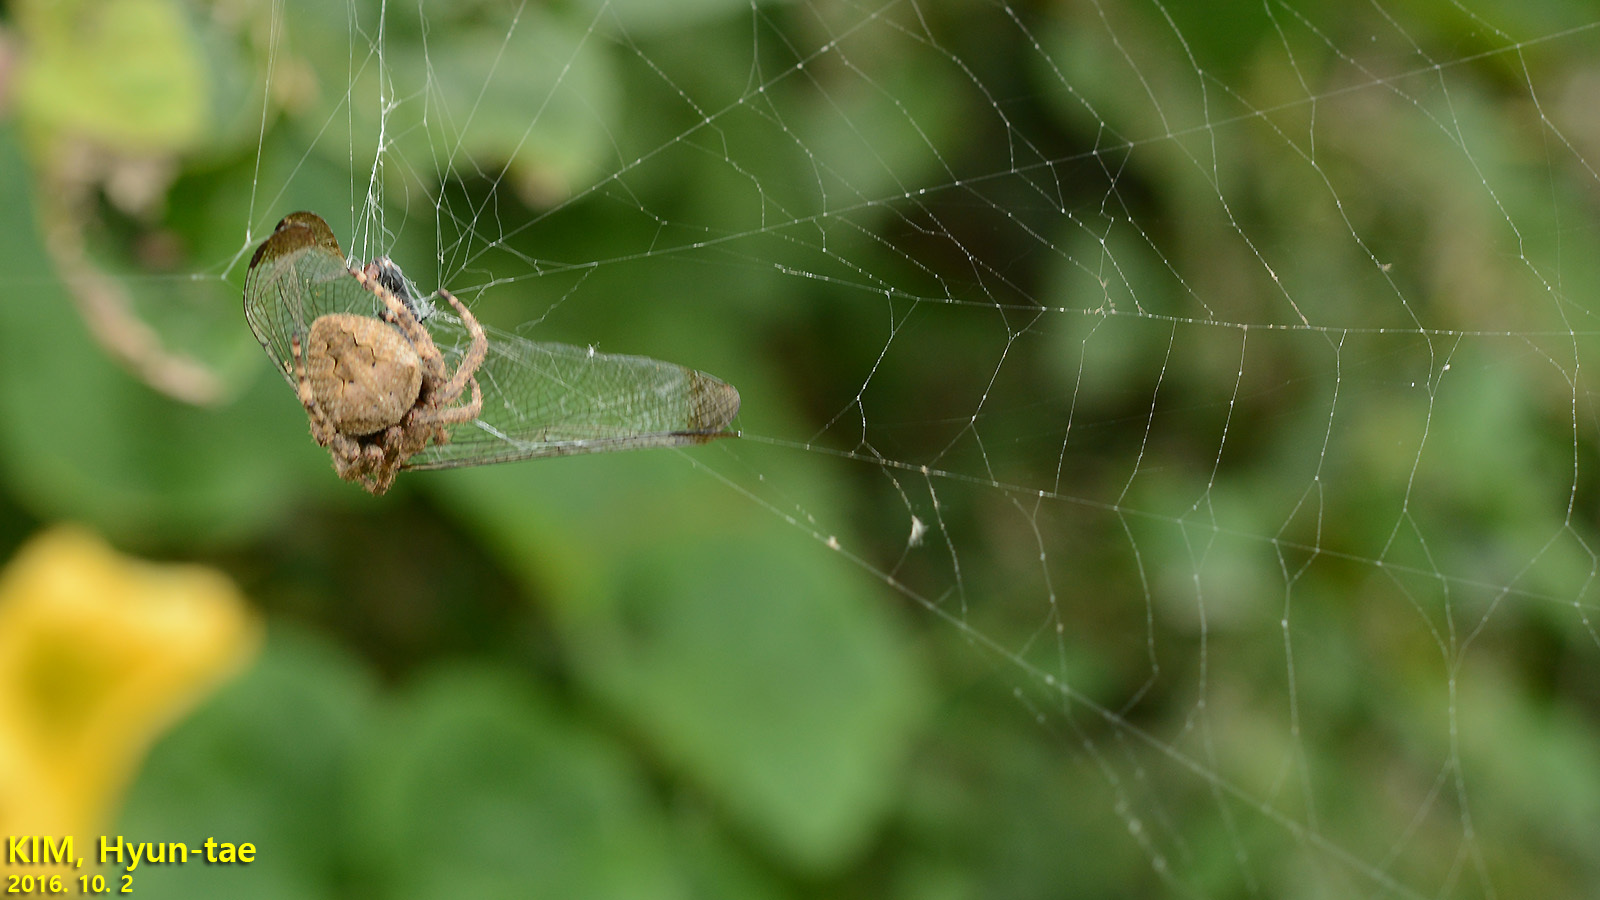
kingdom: Animalia
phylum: Arthropoda
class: Arachnida
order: Araneae
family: Araneidae
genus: Araneus
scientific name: Araneus ventricosus
